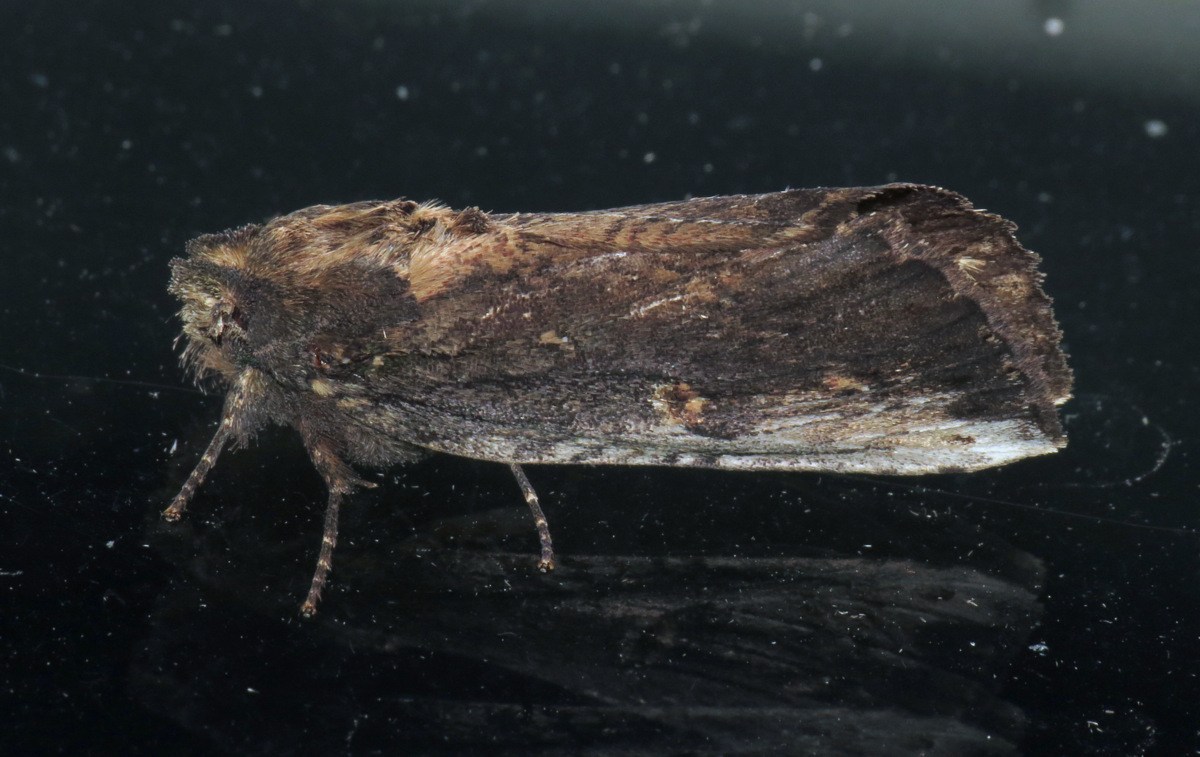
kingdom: Animalia
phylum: Arthropoda
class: Insecta
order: Lepidoptera
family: Notodontidae
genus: Schizura
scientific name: Schizura ipomaeae
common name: Morning-glory prominent
